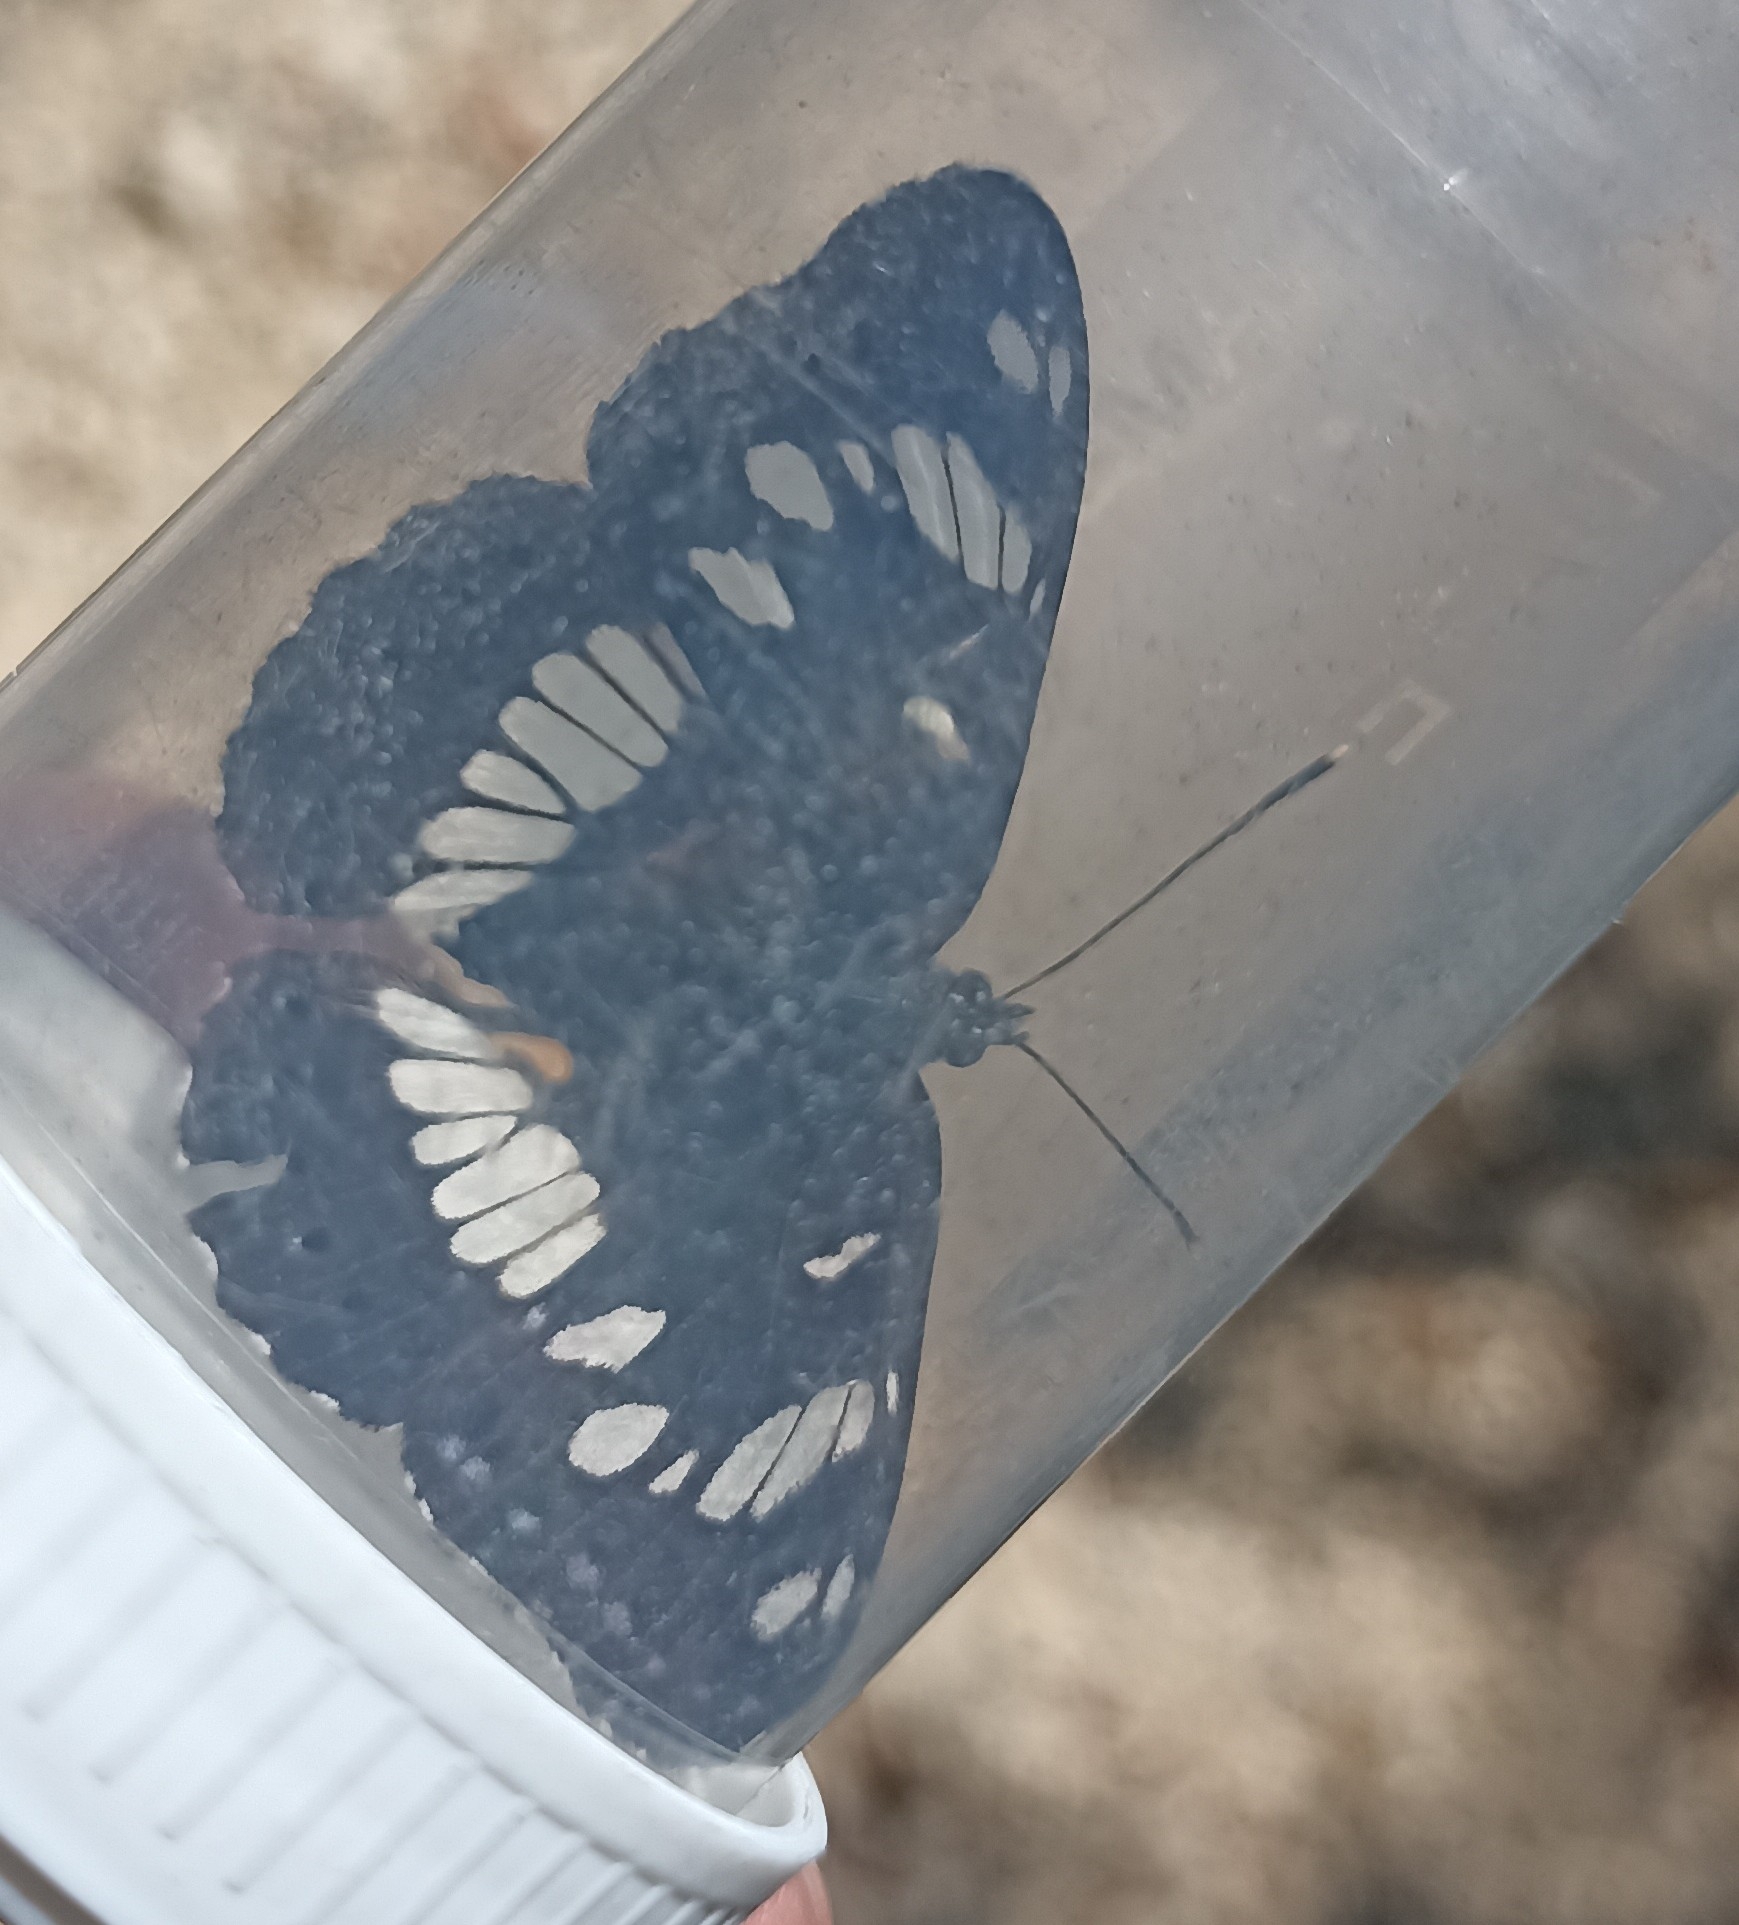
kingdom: Animalia
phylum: Arthropoda
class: Insecta
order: Lepidoptera
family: Nymphalidae
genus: Limenitis
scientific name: Limenitis reducta
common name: Southern white admiral
